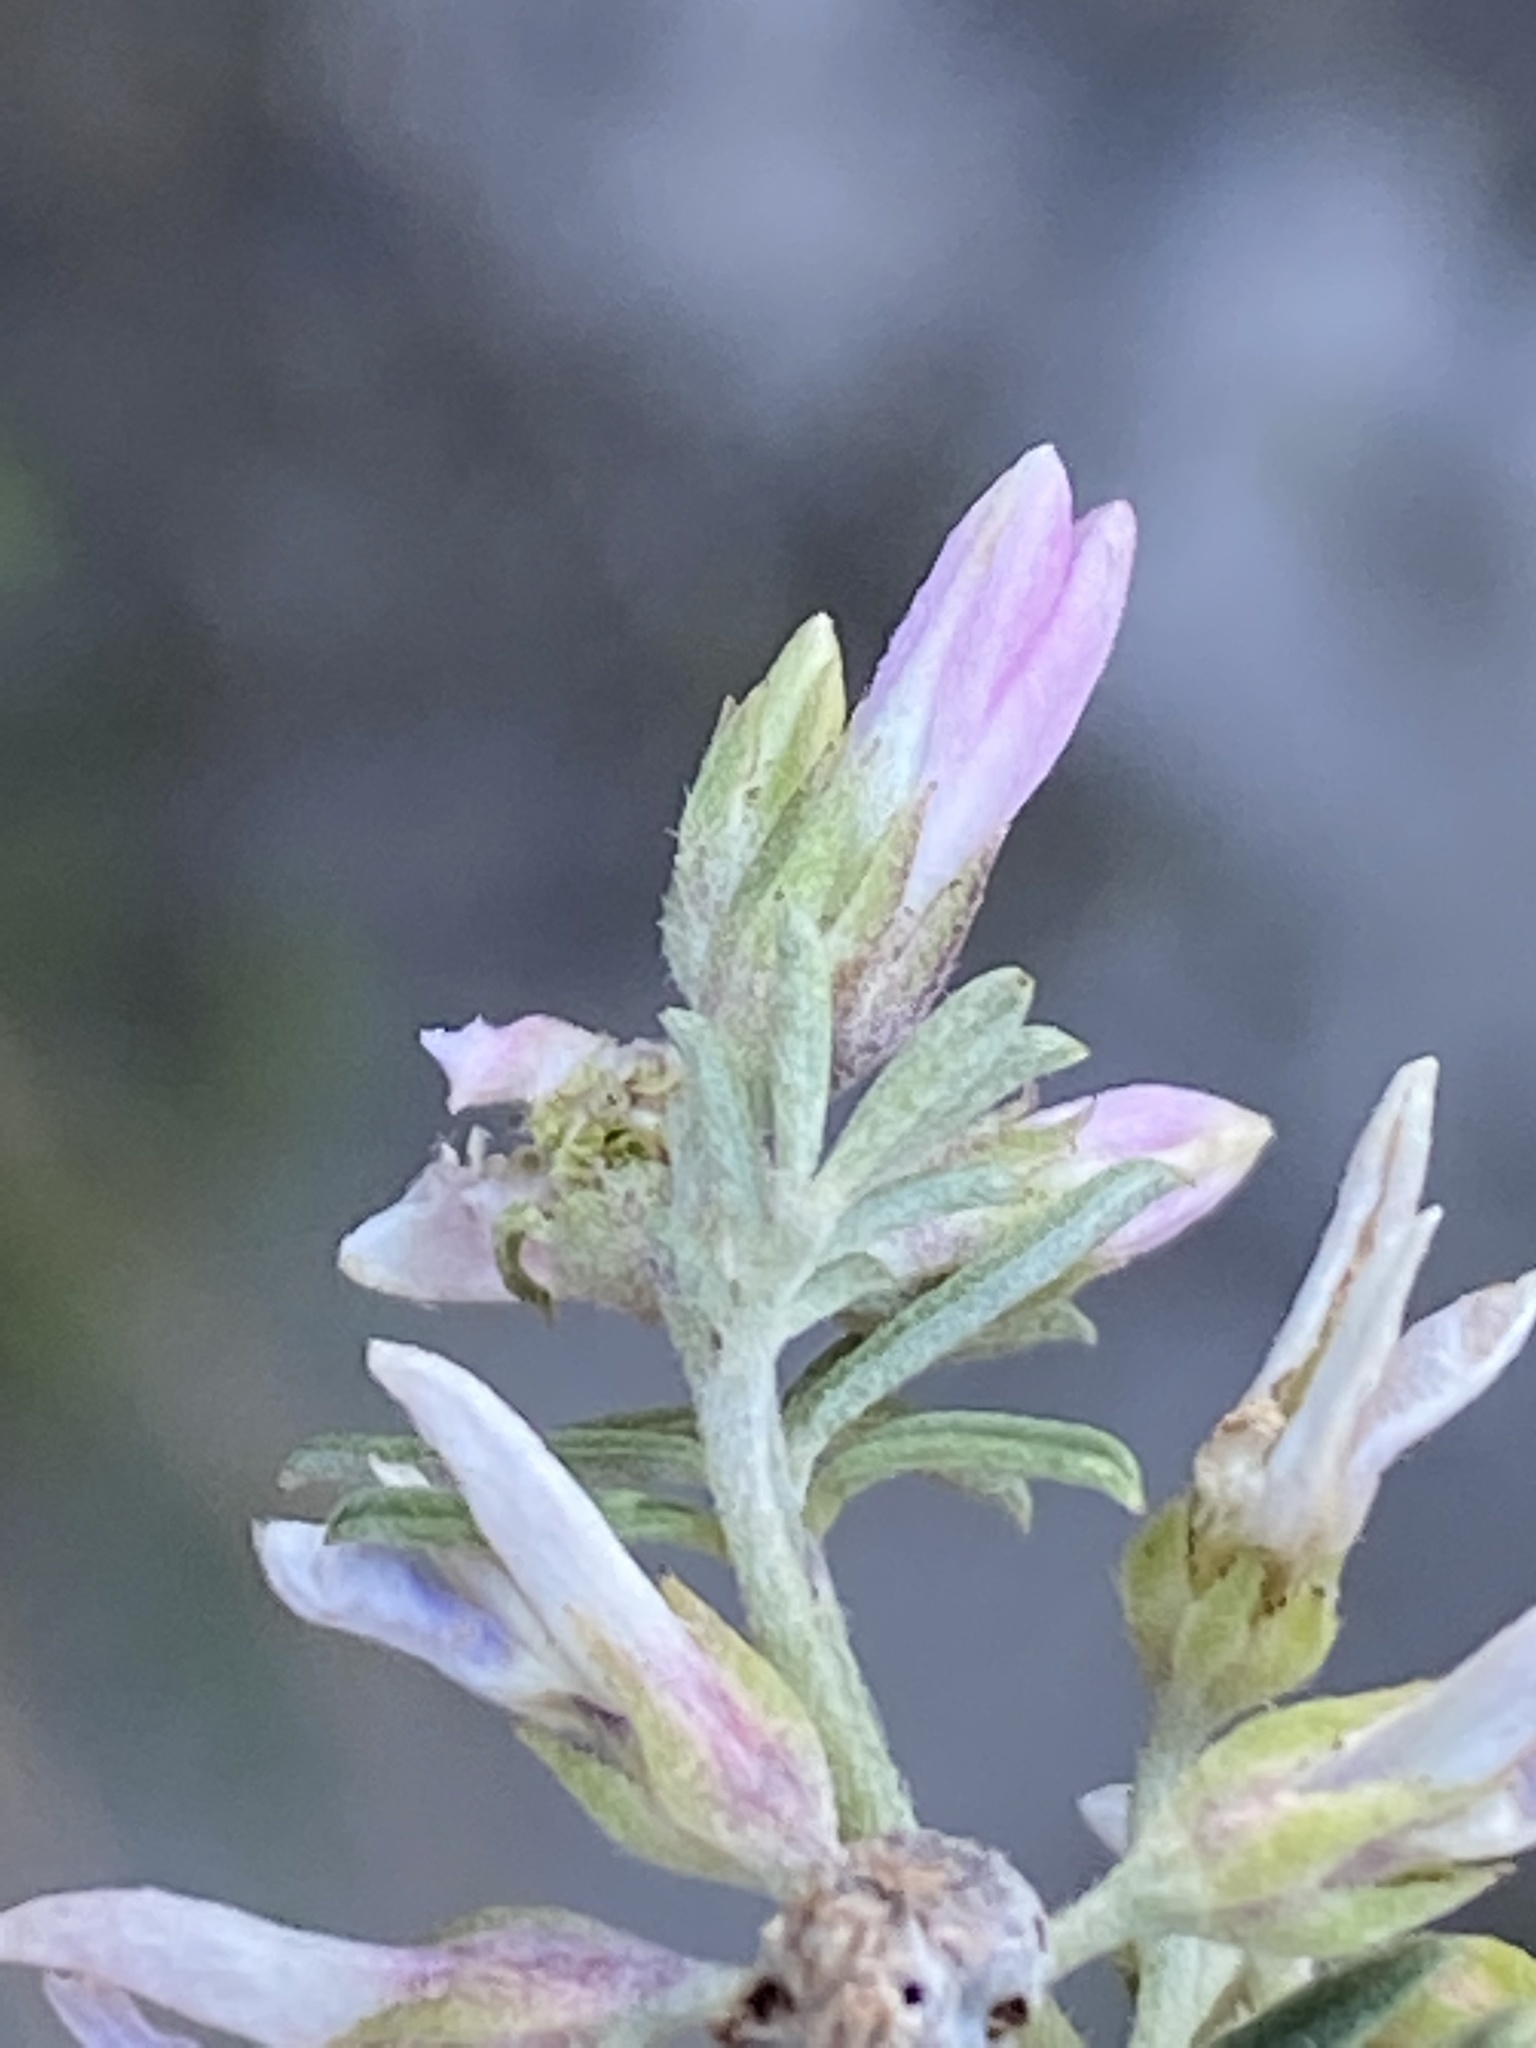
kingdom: Plantae
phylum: Tracheophyta
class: Magnoliopsida
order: Fabales
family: Fabaceae
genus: Indigofera
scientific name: Indigofera brachystachya
